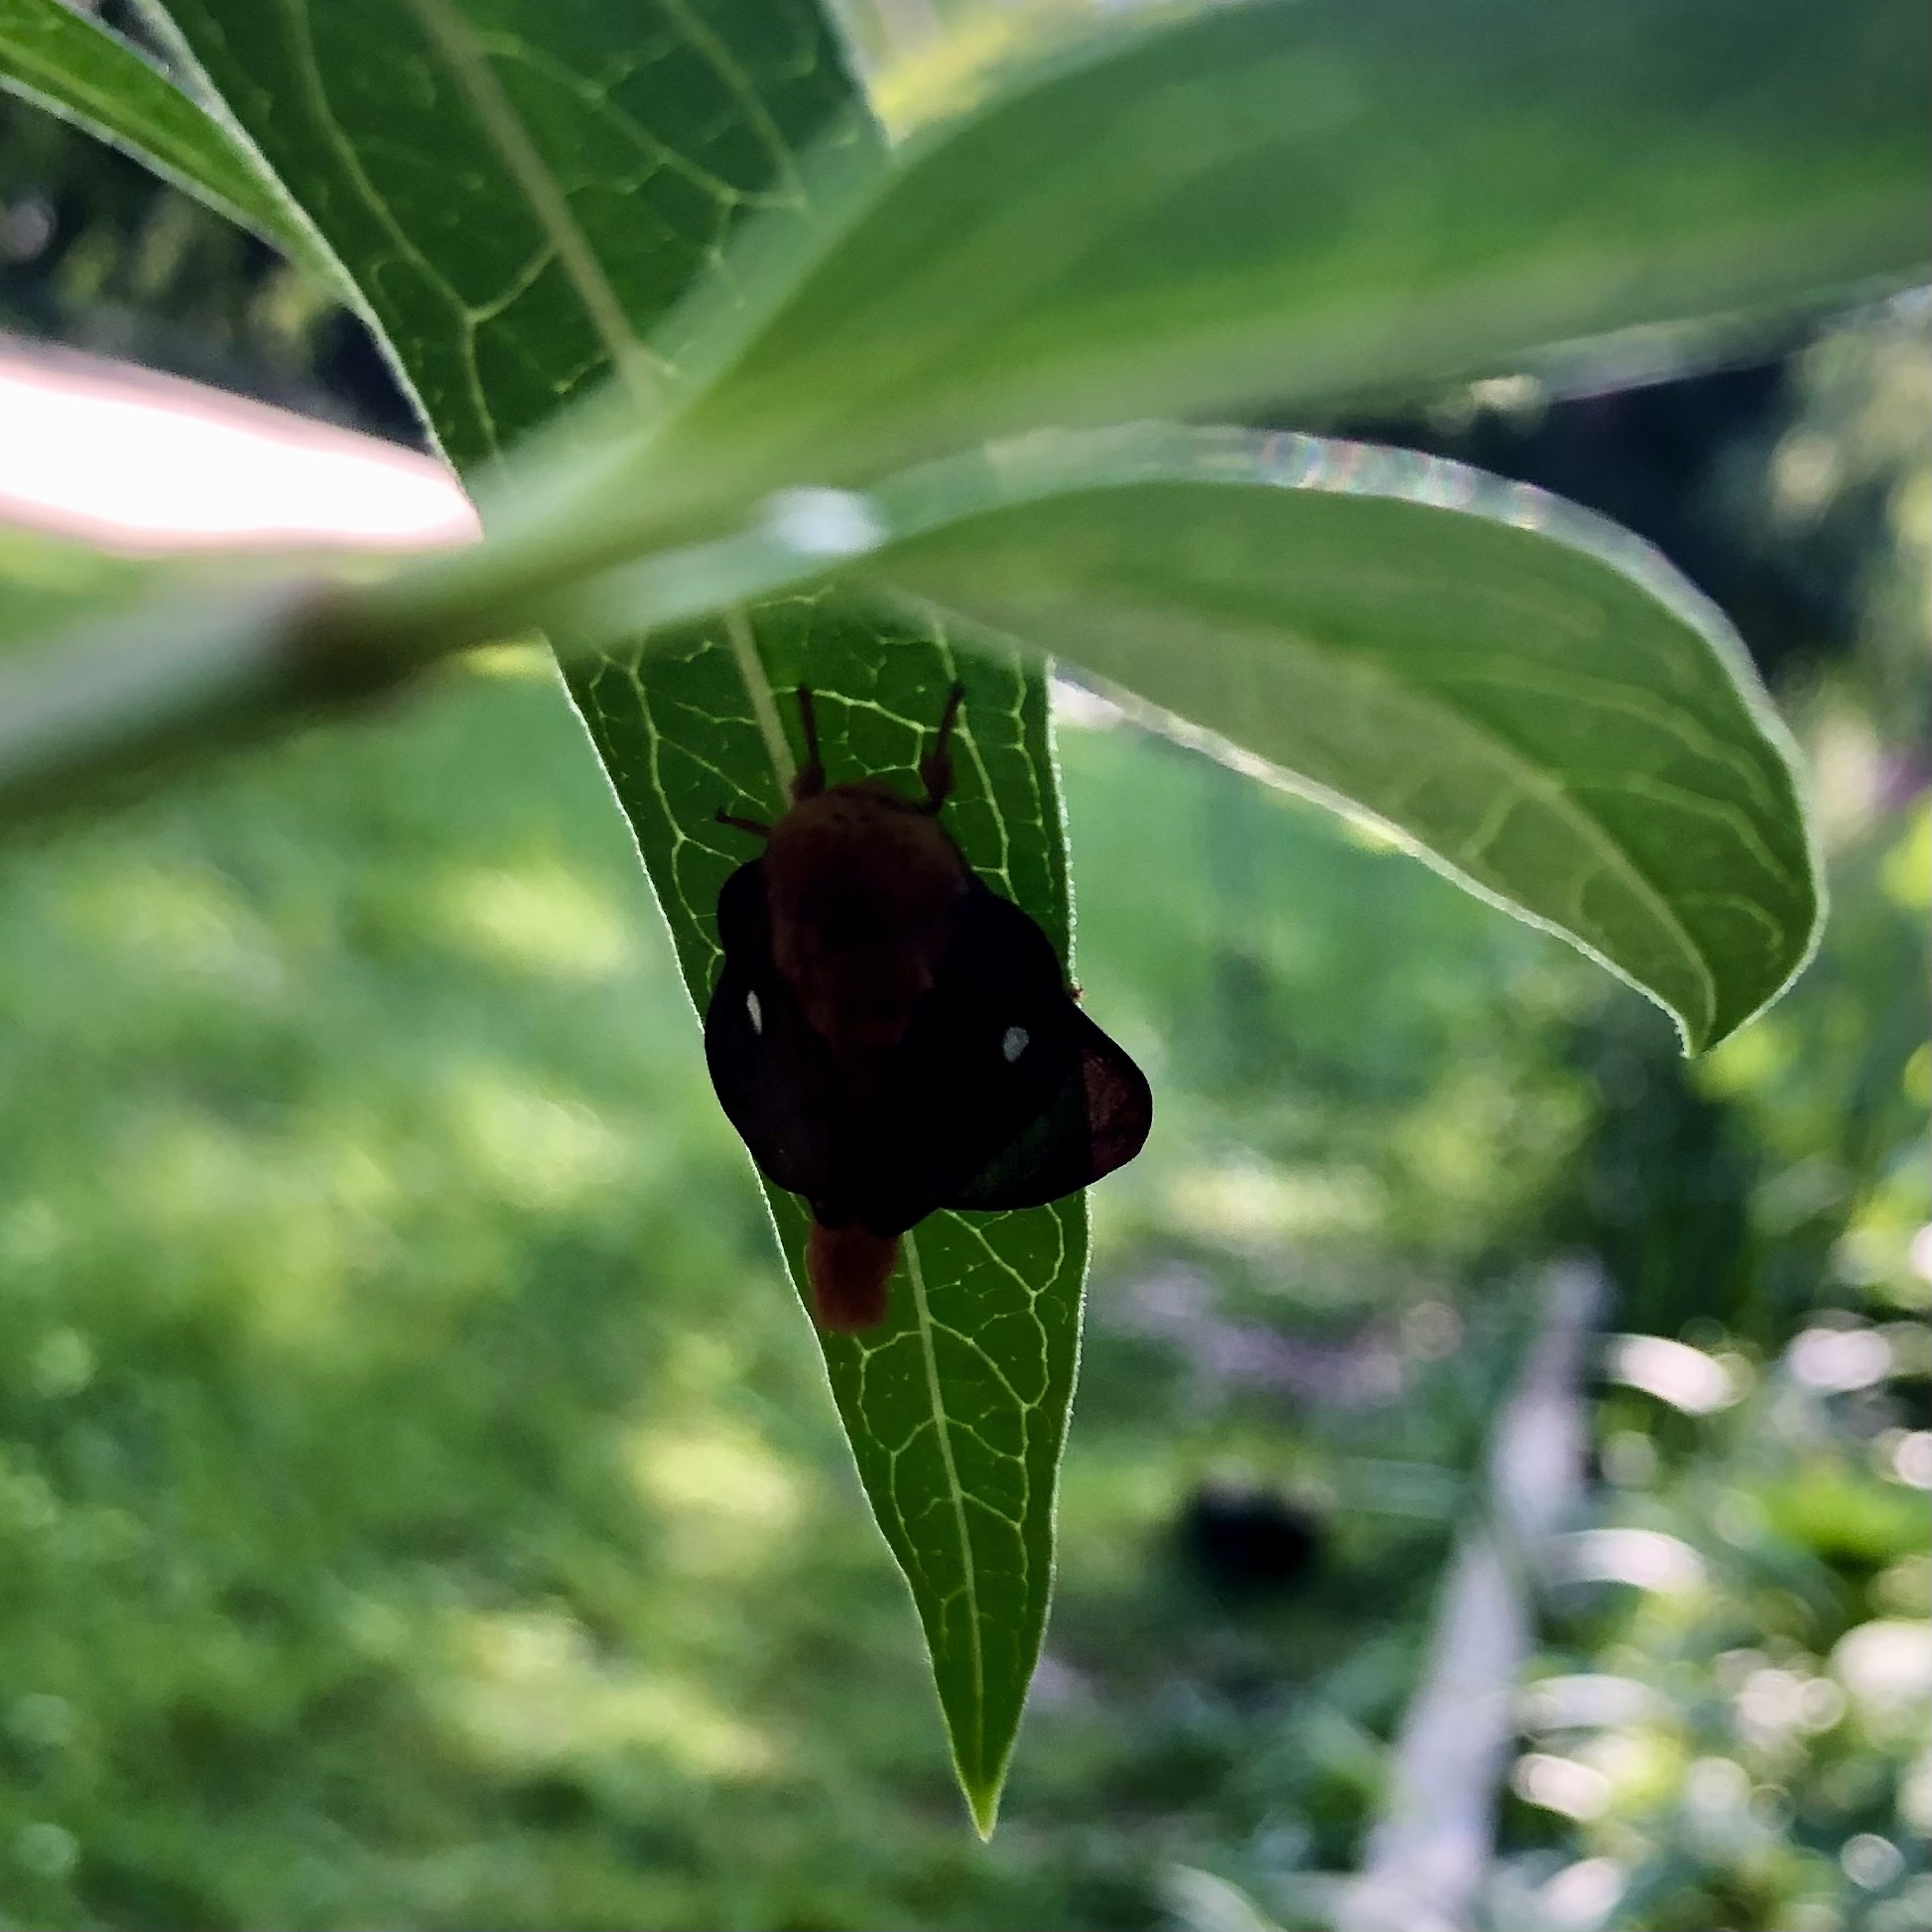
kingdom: Animalia
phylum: Arthropoda
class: Insecta
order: Lepidoptera
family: Saturniidae
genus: Anisota
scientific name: Anisota virginiensis
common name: Pink striped oakworm moth
